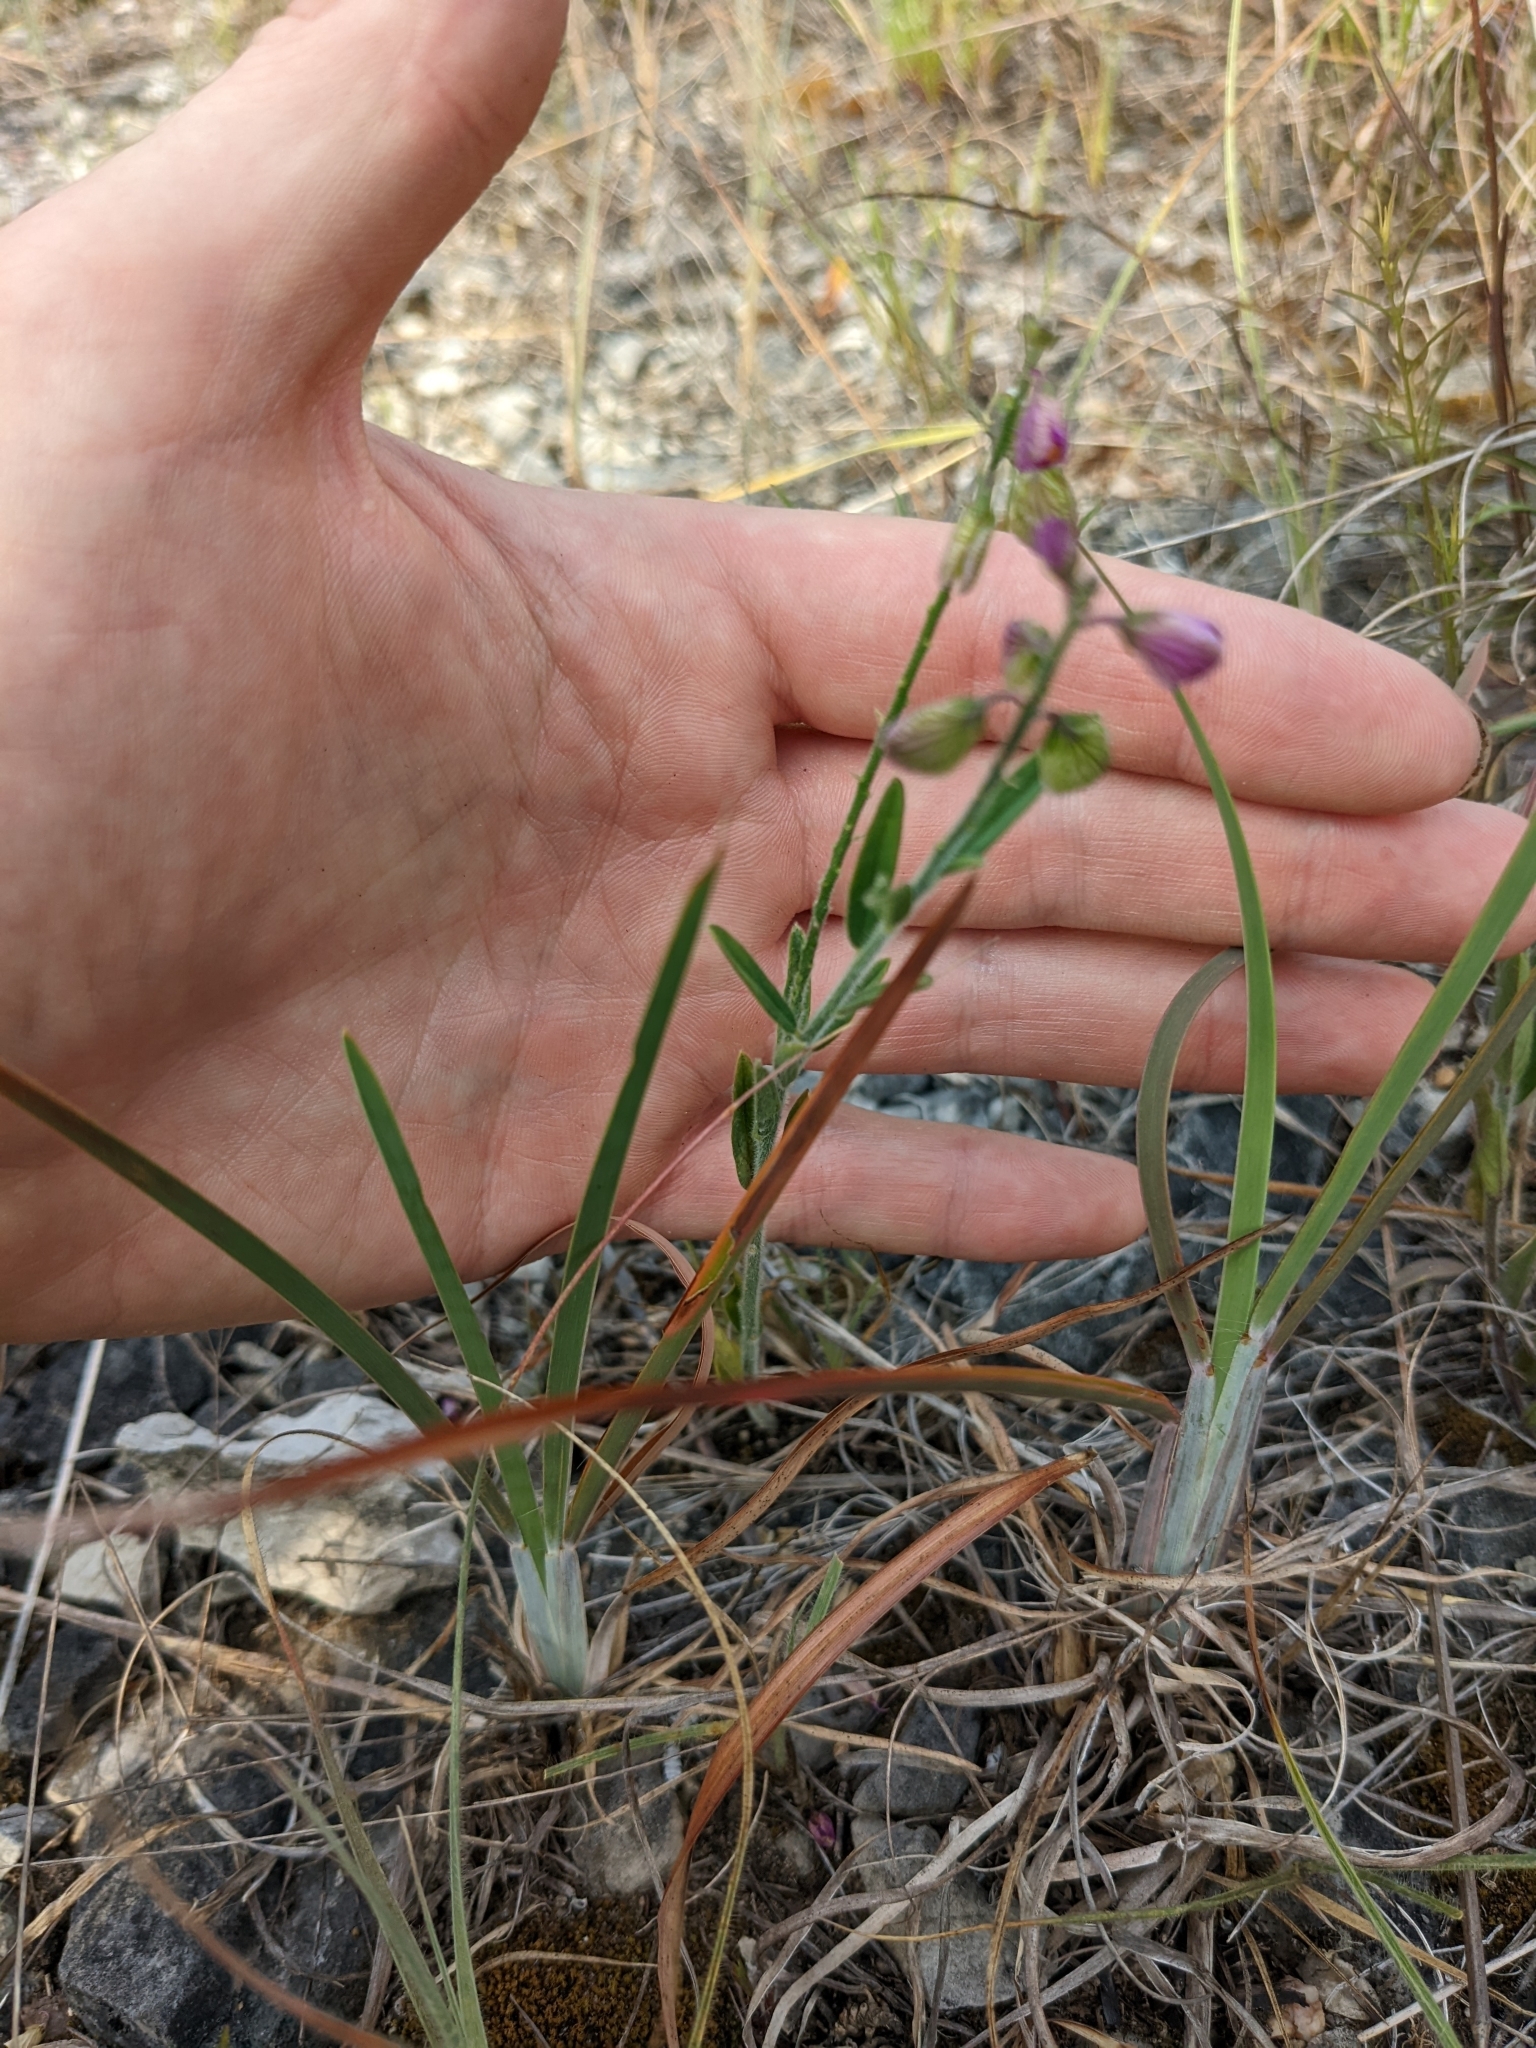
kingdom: Plantae
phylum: Tracheophyta
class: Magnoliopsida
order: Fabales
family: Polygalaceae
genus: Asemeia
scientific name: Asemeia grandiflora
